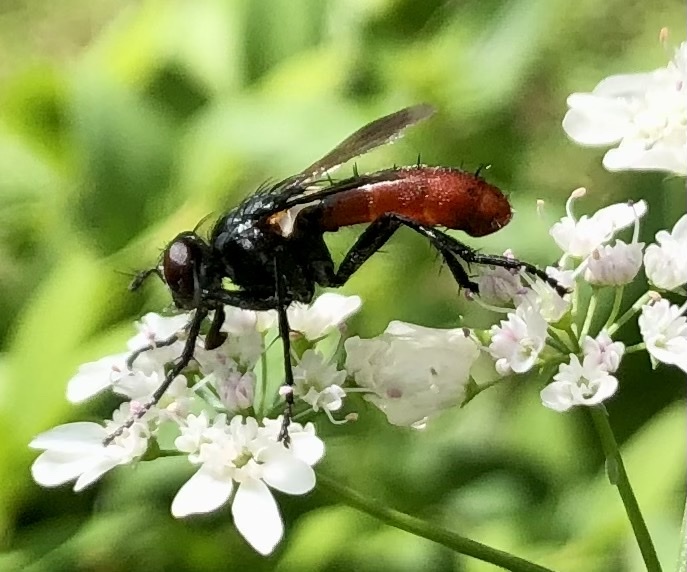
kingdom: Animalia
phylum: Arthropoda
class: Insecta
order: Diptera
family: Tachinidae
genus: Cylindromyia
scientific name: Cylindromyia bicolor
